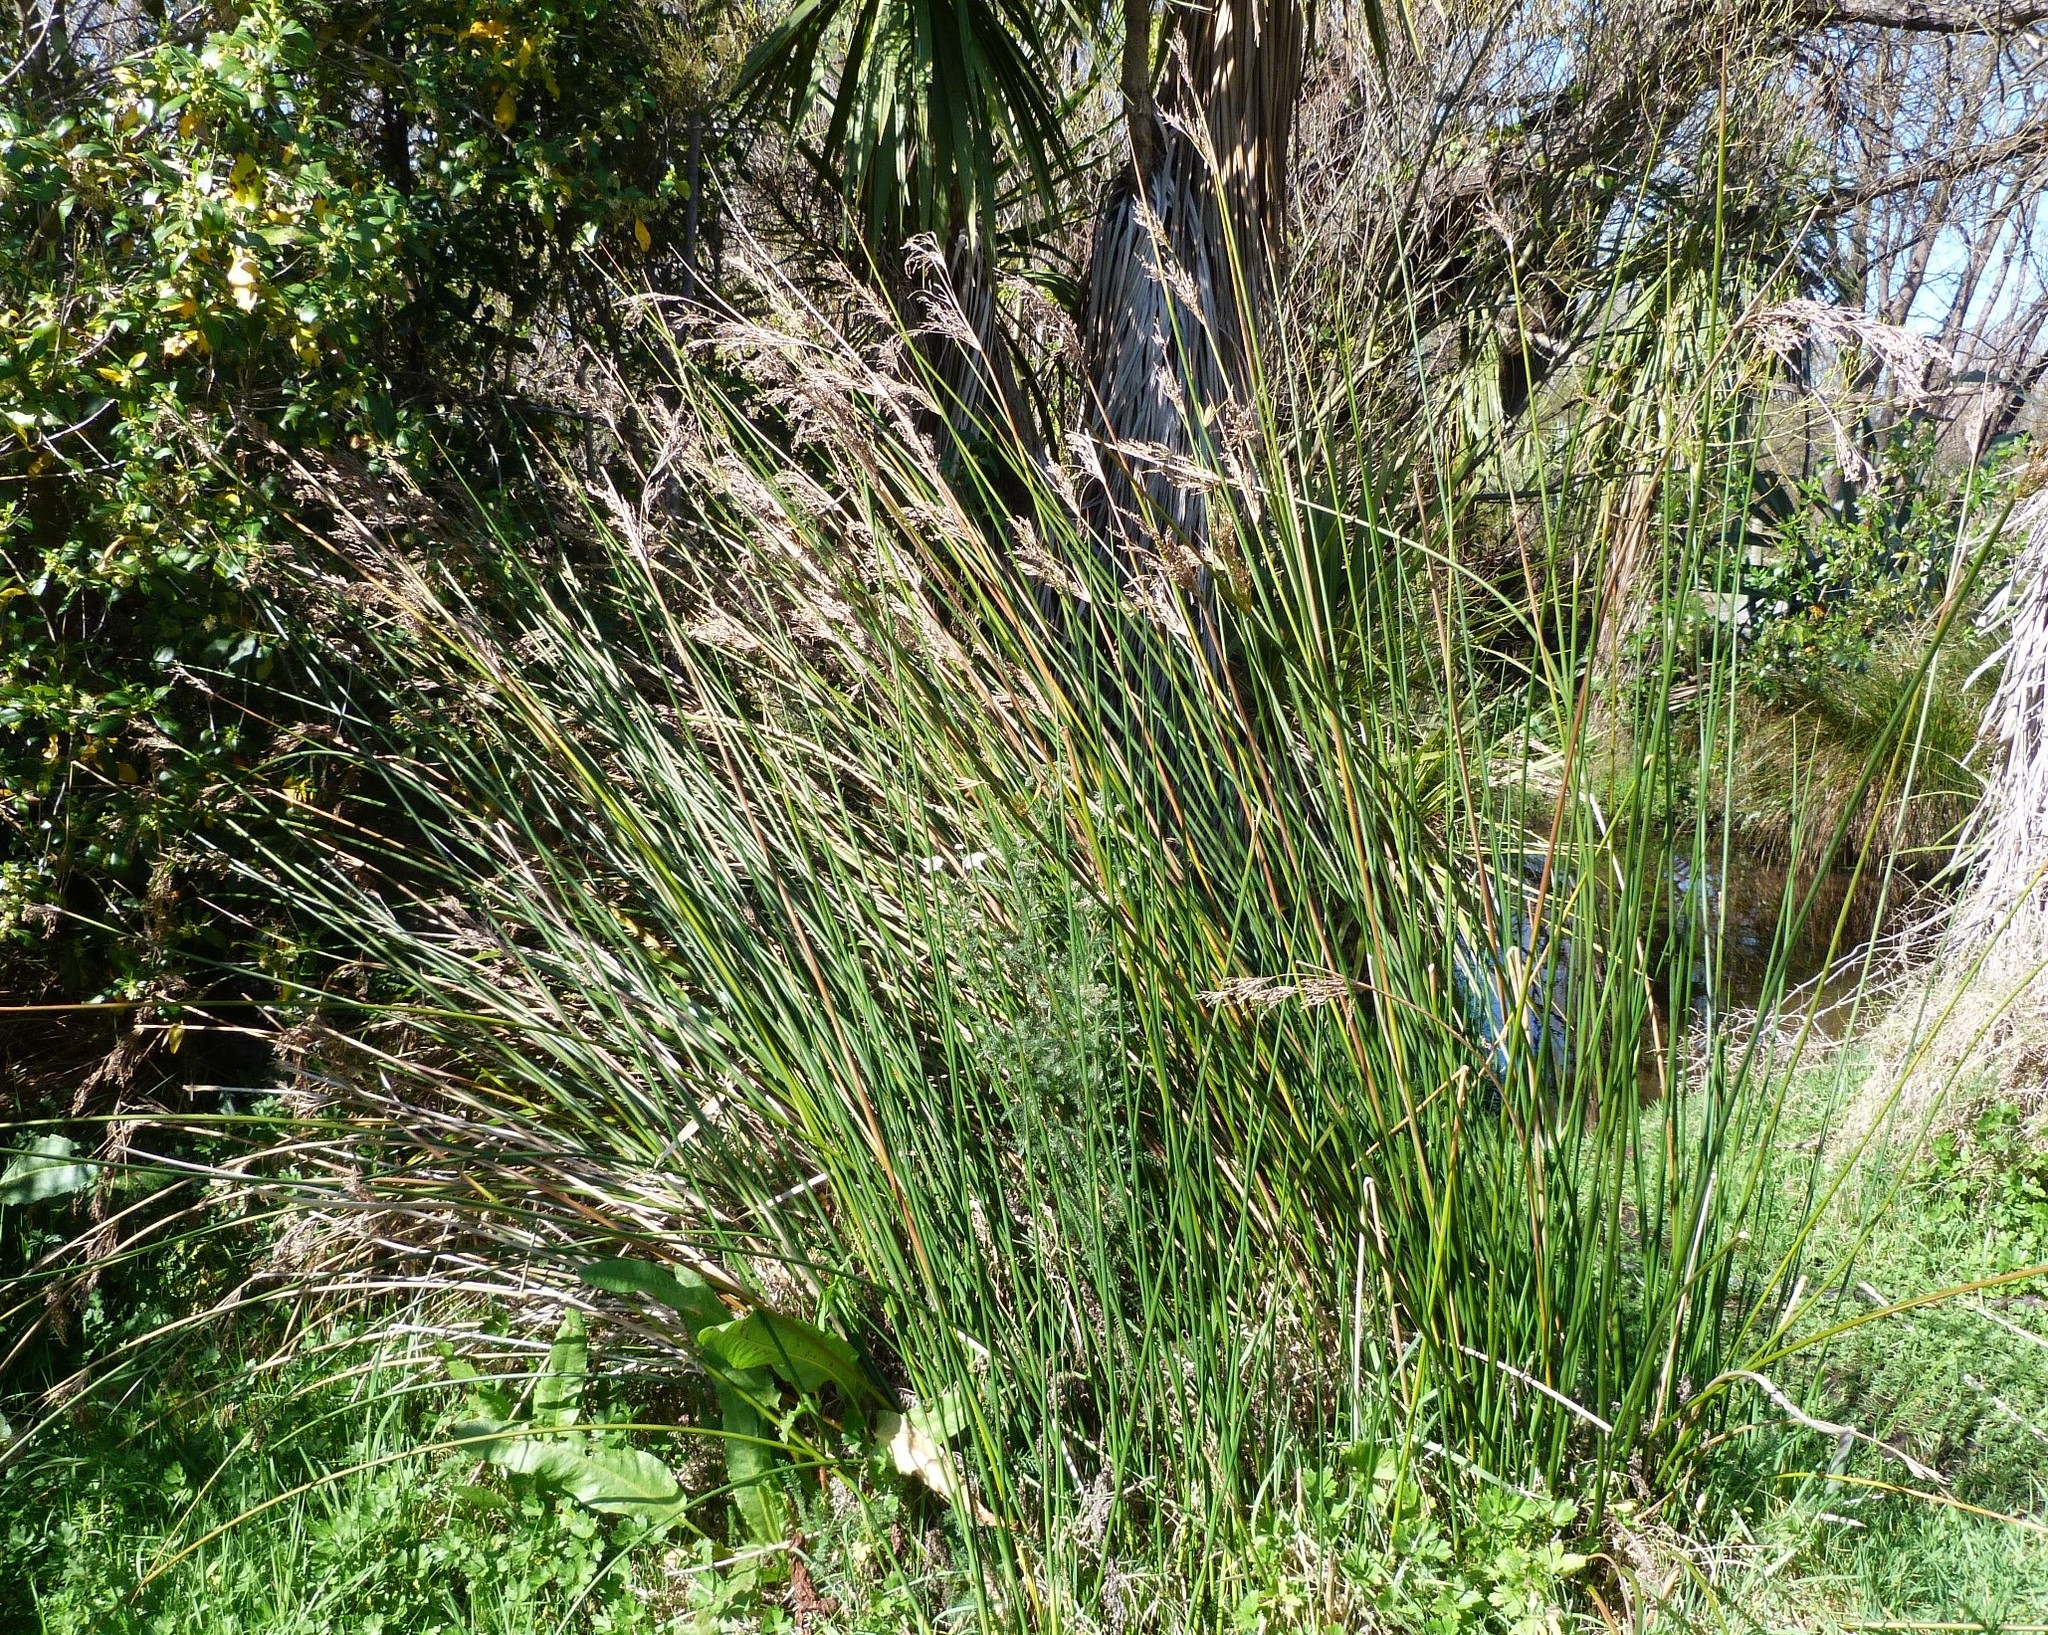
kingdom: Plantae
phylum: Tracheophyta
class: Liliopsida
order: Poales
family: Juncaceae
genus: Juncus
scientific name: Juncus pallidus
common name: Great soft-rush
